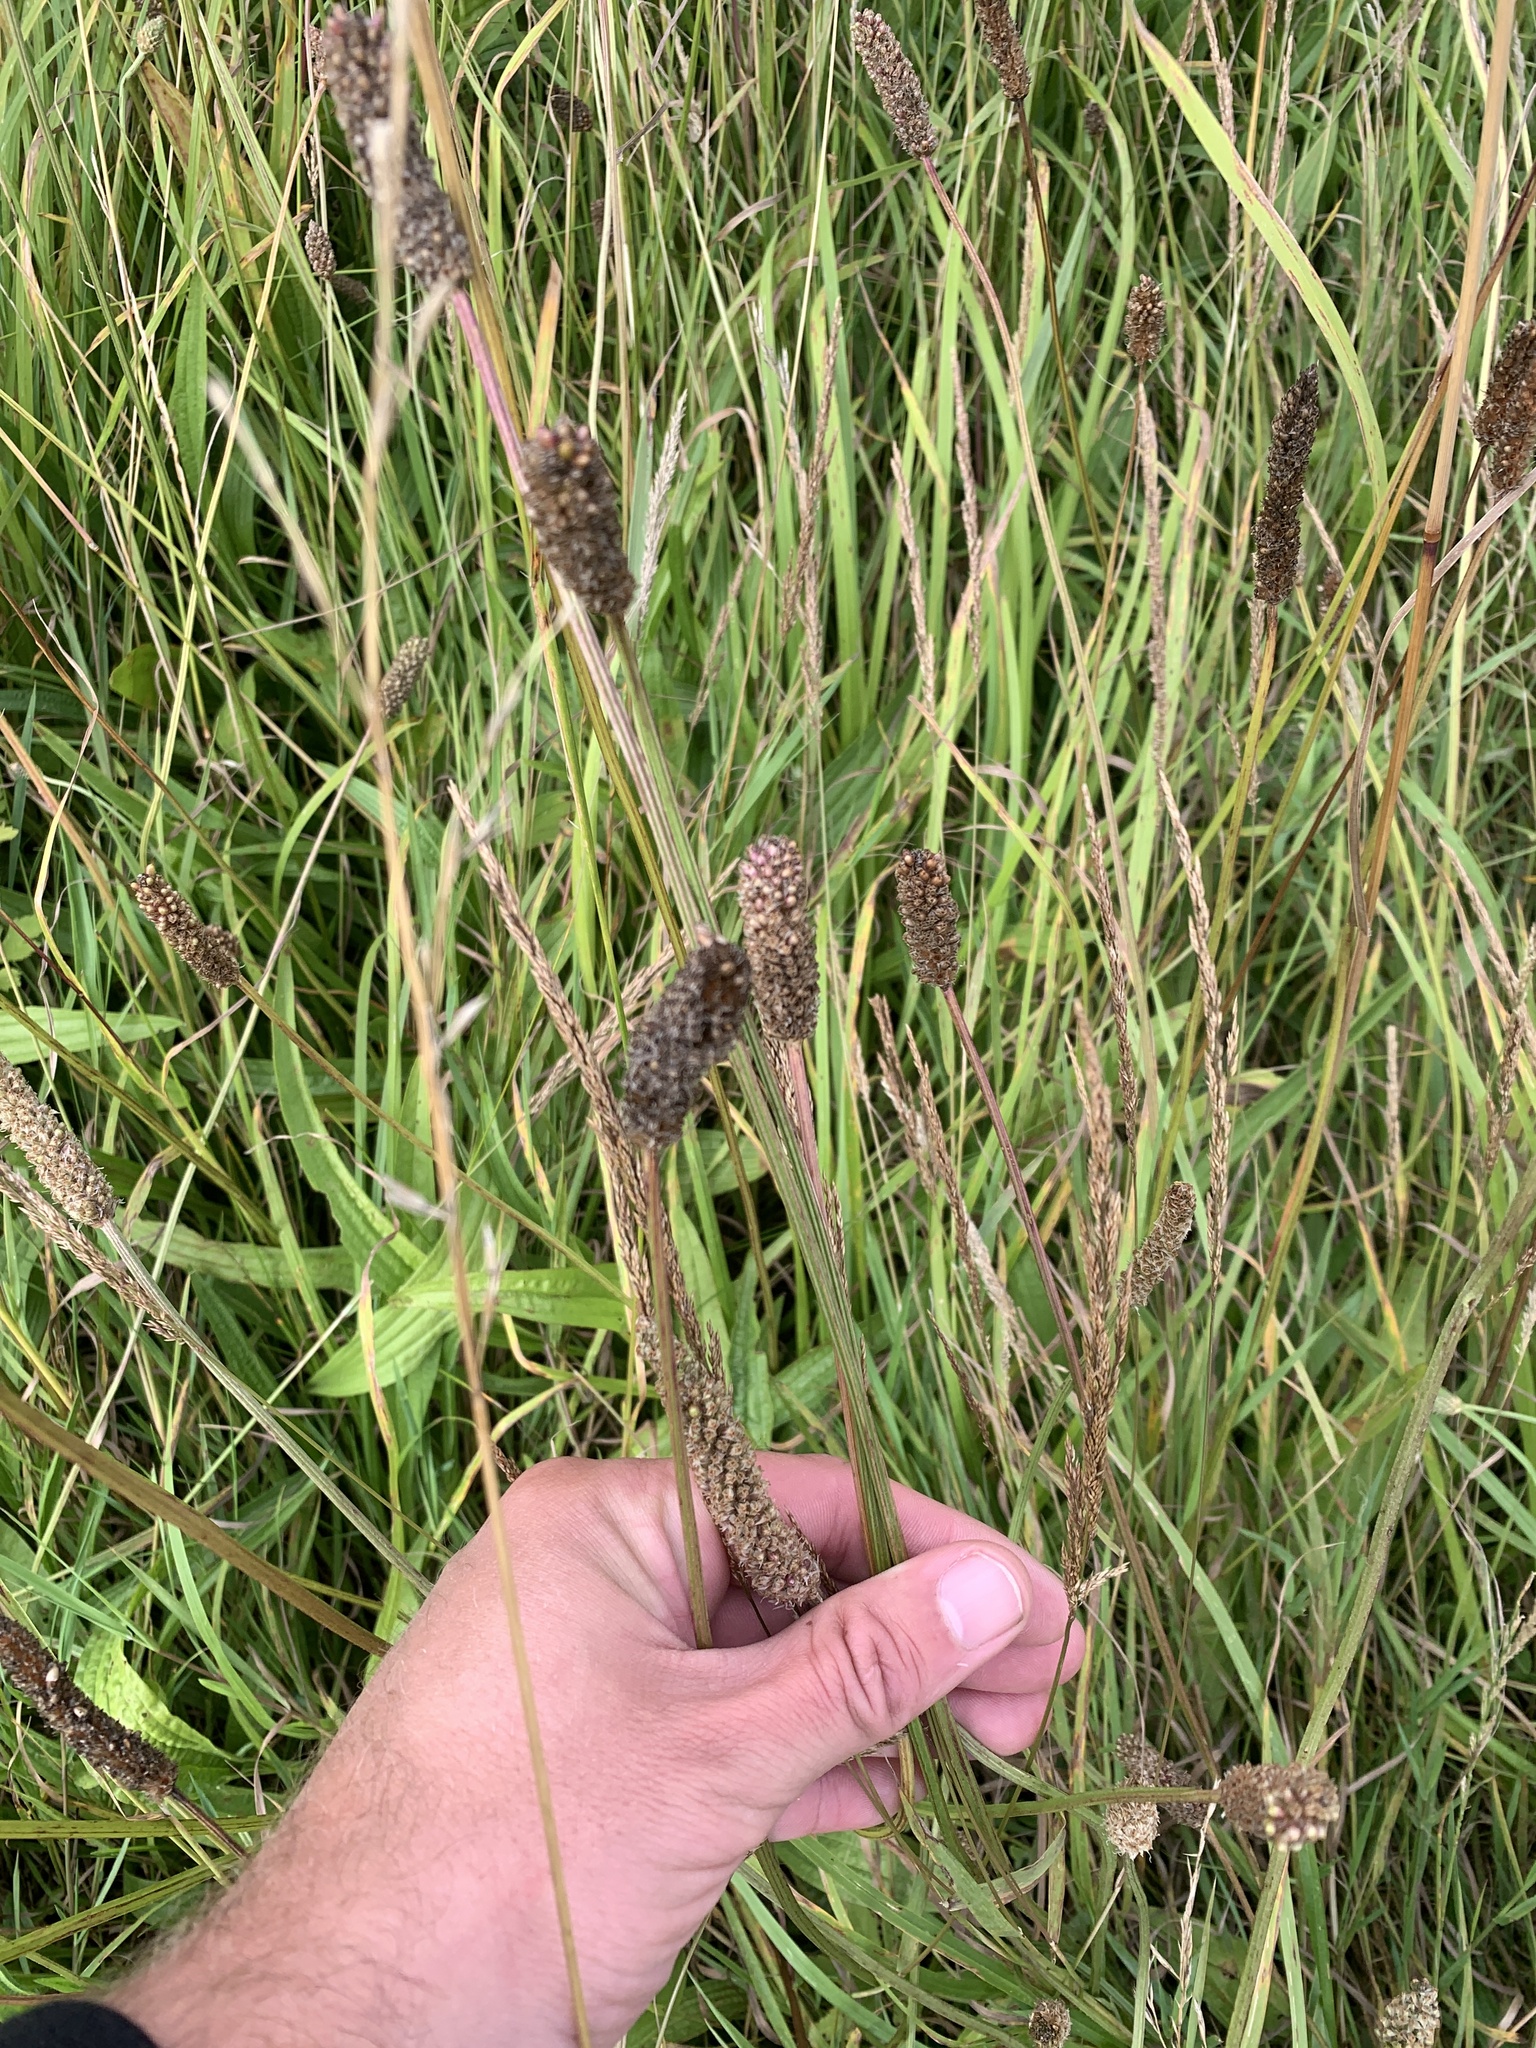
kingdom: Plantae
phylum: Tracheophyta
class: Magnoliopsida
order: Lamiales
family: Plantaginaceae
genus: Plantago
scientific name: Plantago lanceolata
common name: Ribwort plantain
